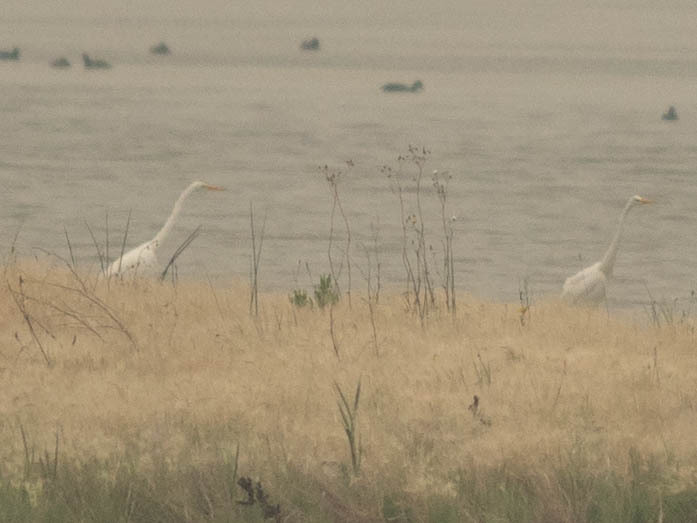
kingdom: Animalia
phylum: Chordata
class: Aves
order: Pelecaniformes
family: Ardeidae
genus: Ardea
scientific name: Ardea alba
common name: Great egret
